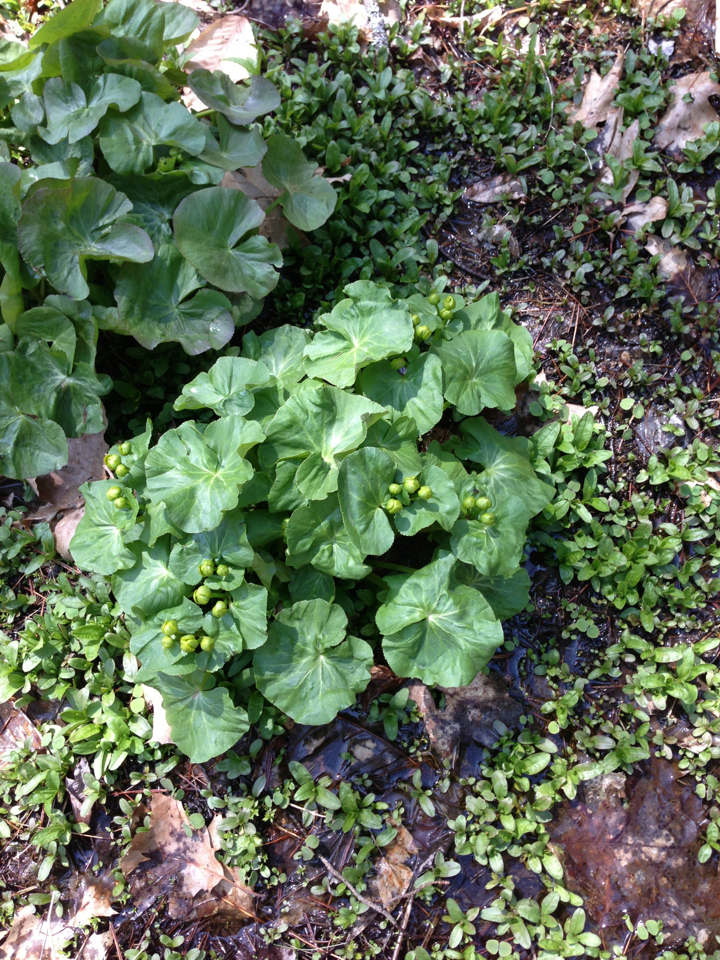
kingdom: Plantae
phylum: Tracheophyta
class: Magnoliopsida
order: Ranunculales
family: Ranunculaceae
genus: Caltha
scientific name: Caltha palustris
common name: Marsh marigold
